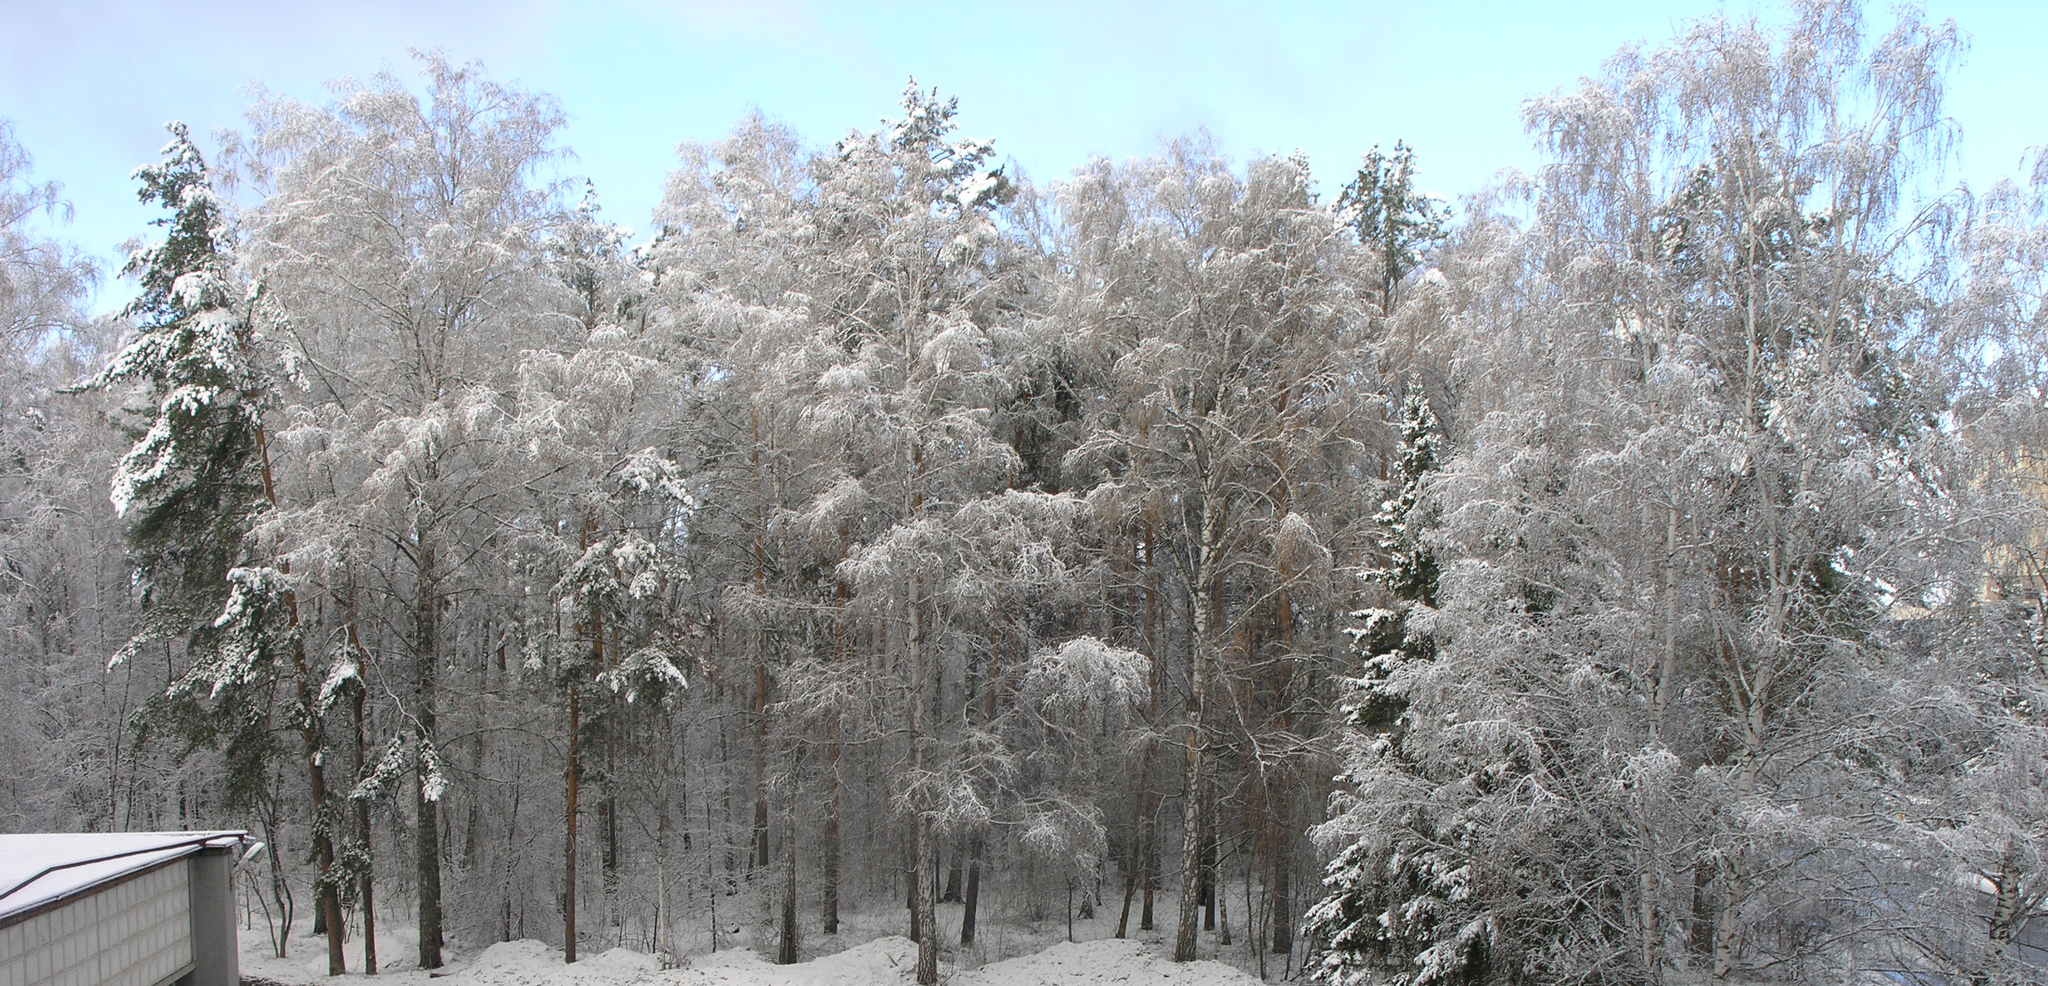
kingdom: Plantae
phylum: Tracheophyta
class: Magnoliopsida
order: Fagales
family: Betulaceae
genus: Betula
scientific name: Betula pendula
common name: Silver birch
